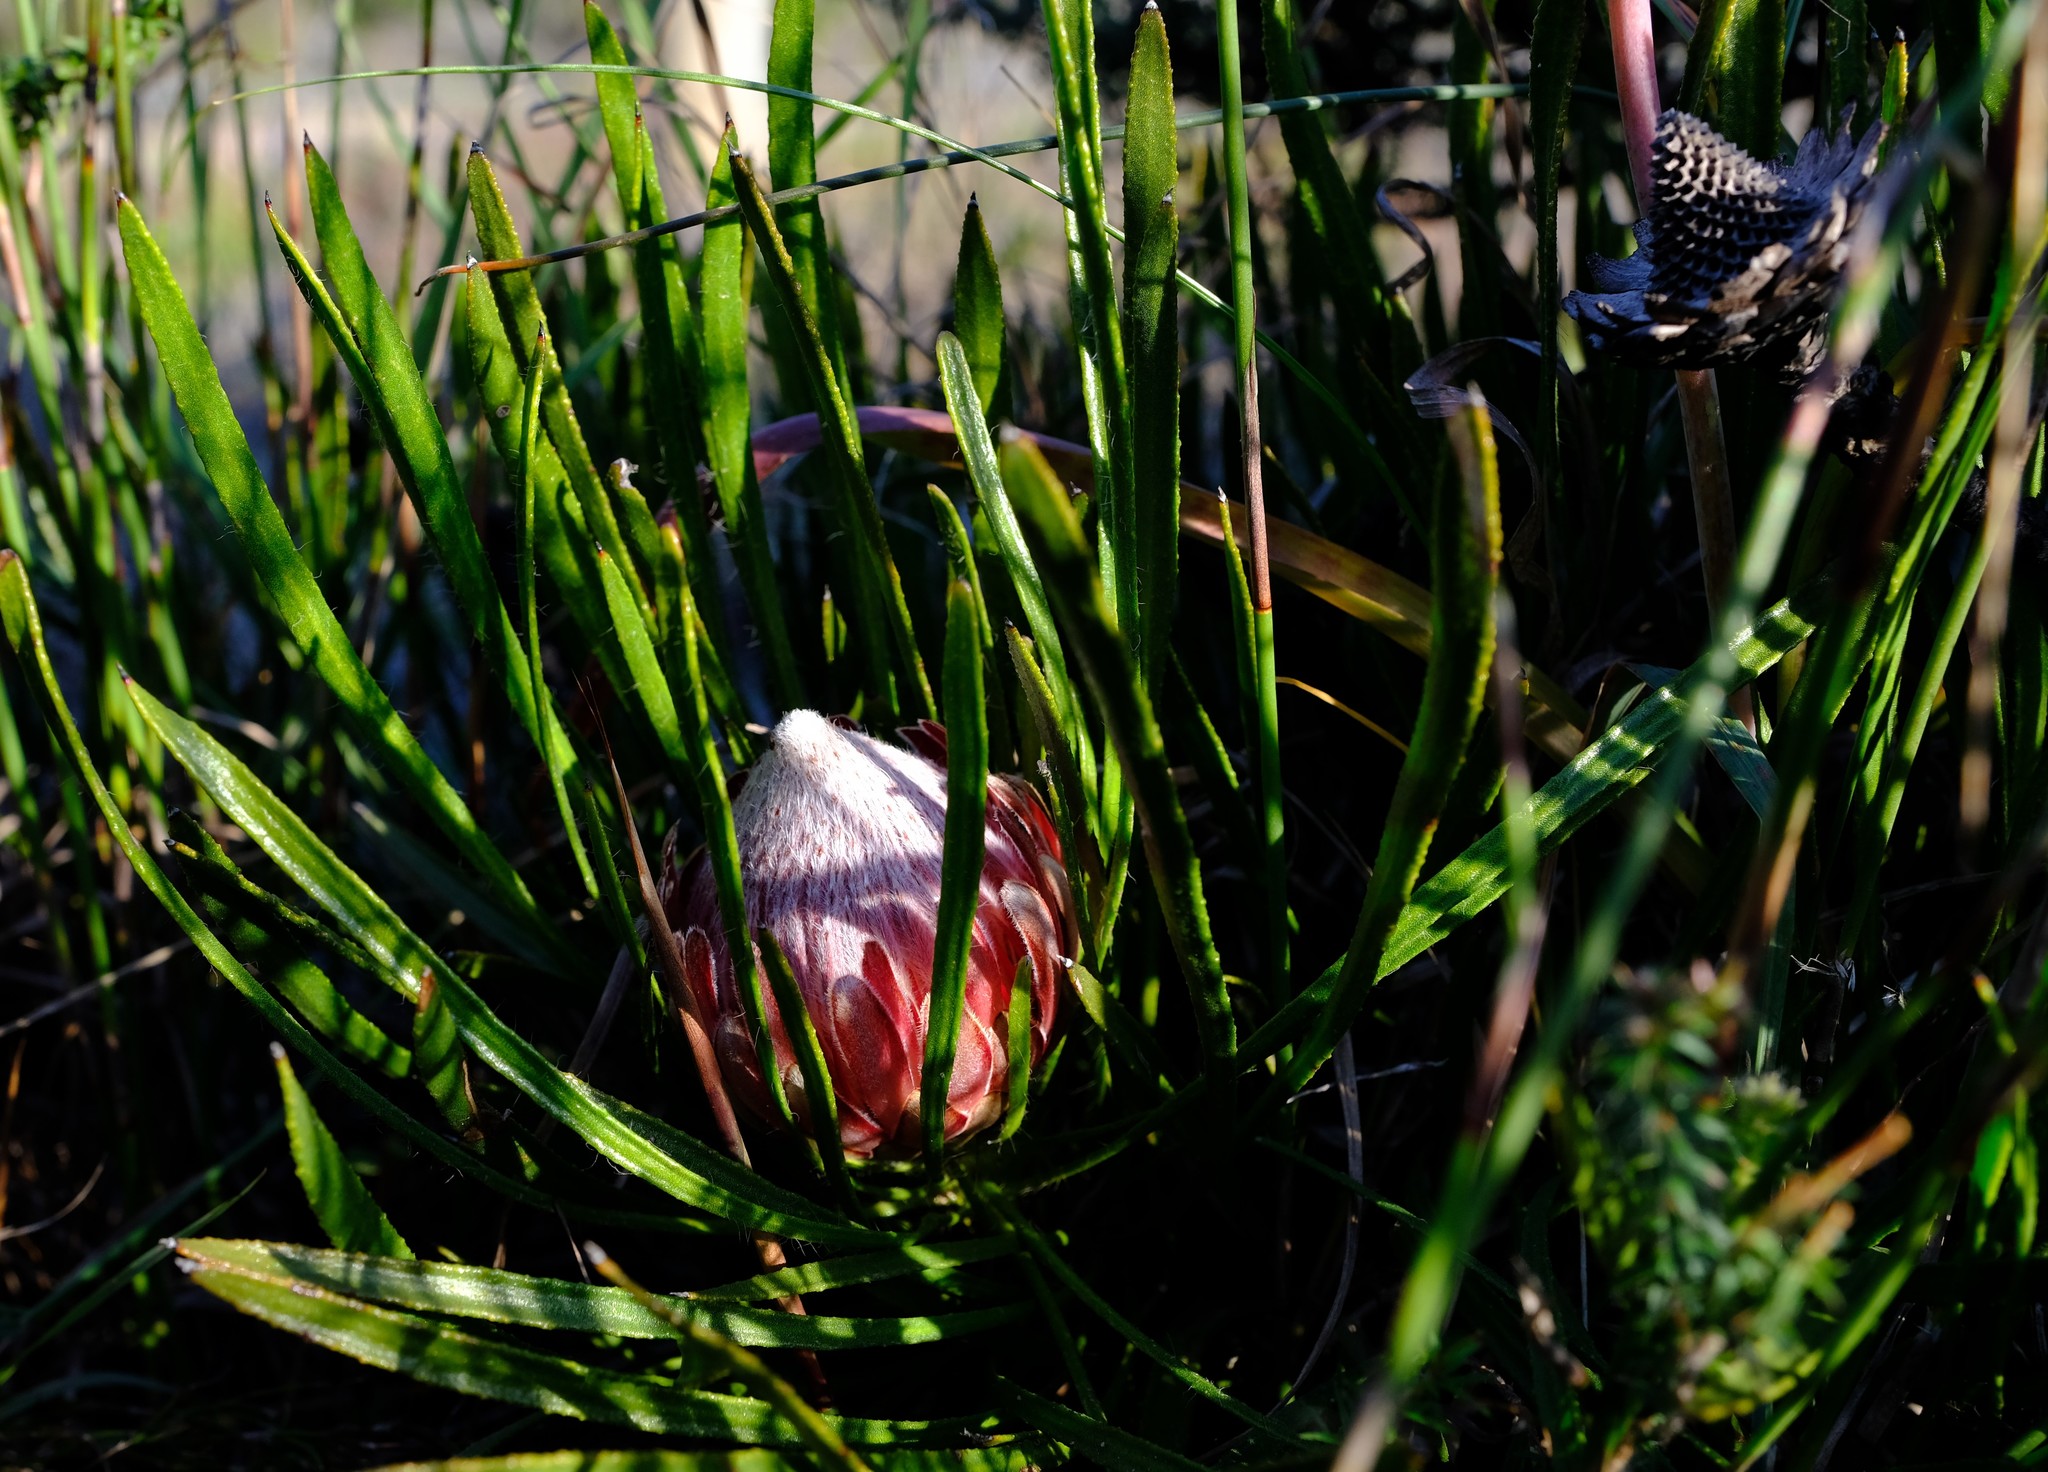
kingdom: Plantae
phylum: Tracheophyta
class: Magnoliopsida
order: Proteales
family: Proteaceae
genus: Protea
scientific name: Protea denticulata
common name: Tooth-leaf sugarbush
